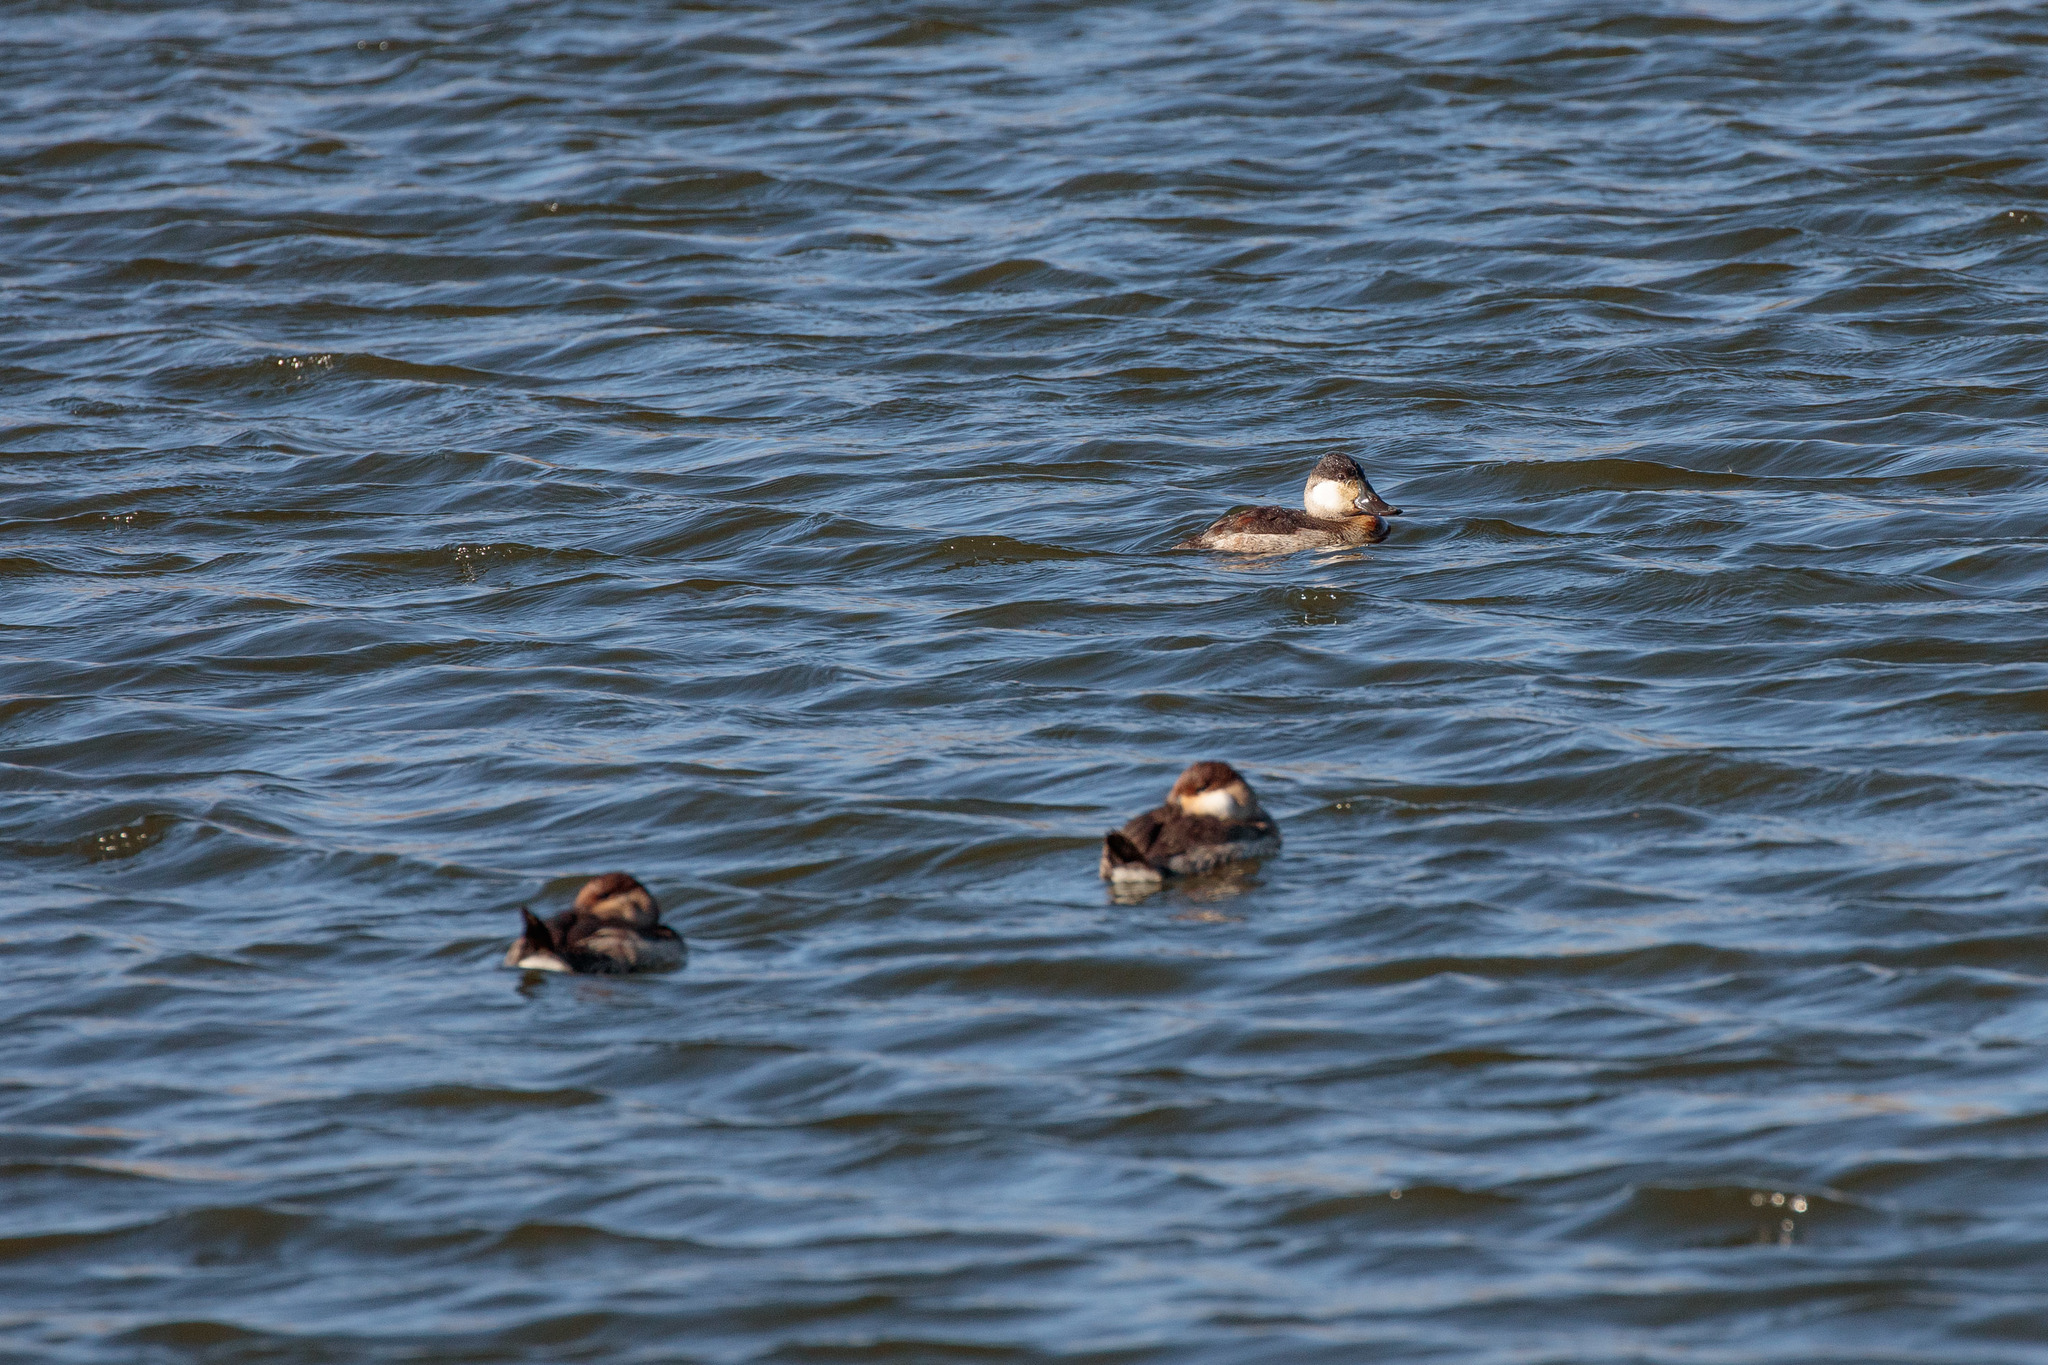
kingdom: Animalia
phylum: Chordata
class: Aves
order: Anseriformes
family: Anatidae
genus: Oxyura
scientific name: Oxyura jamaicensis
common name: Ruddy duck
